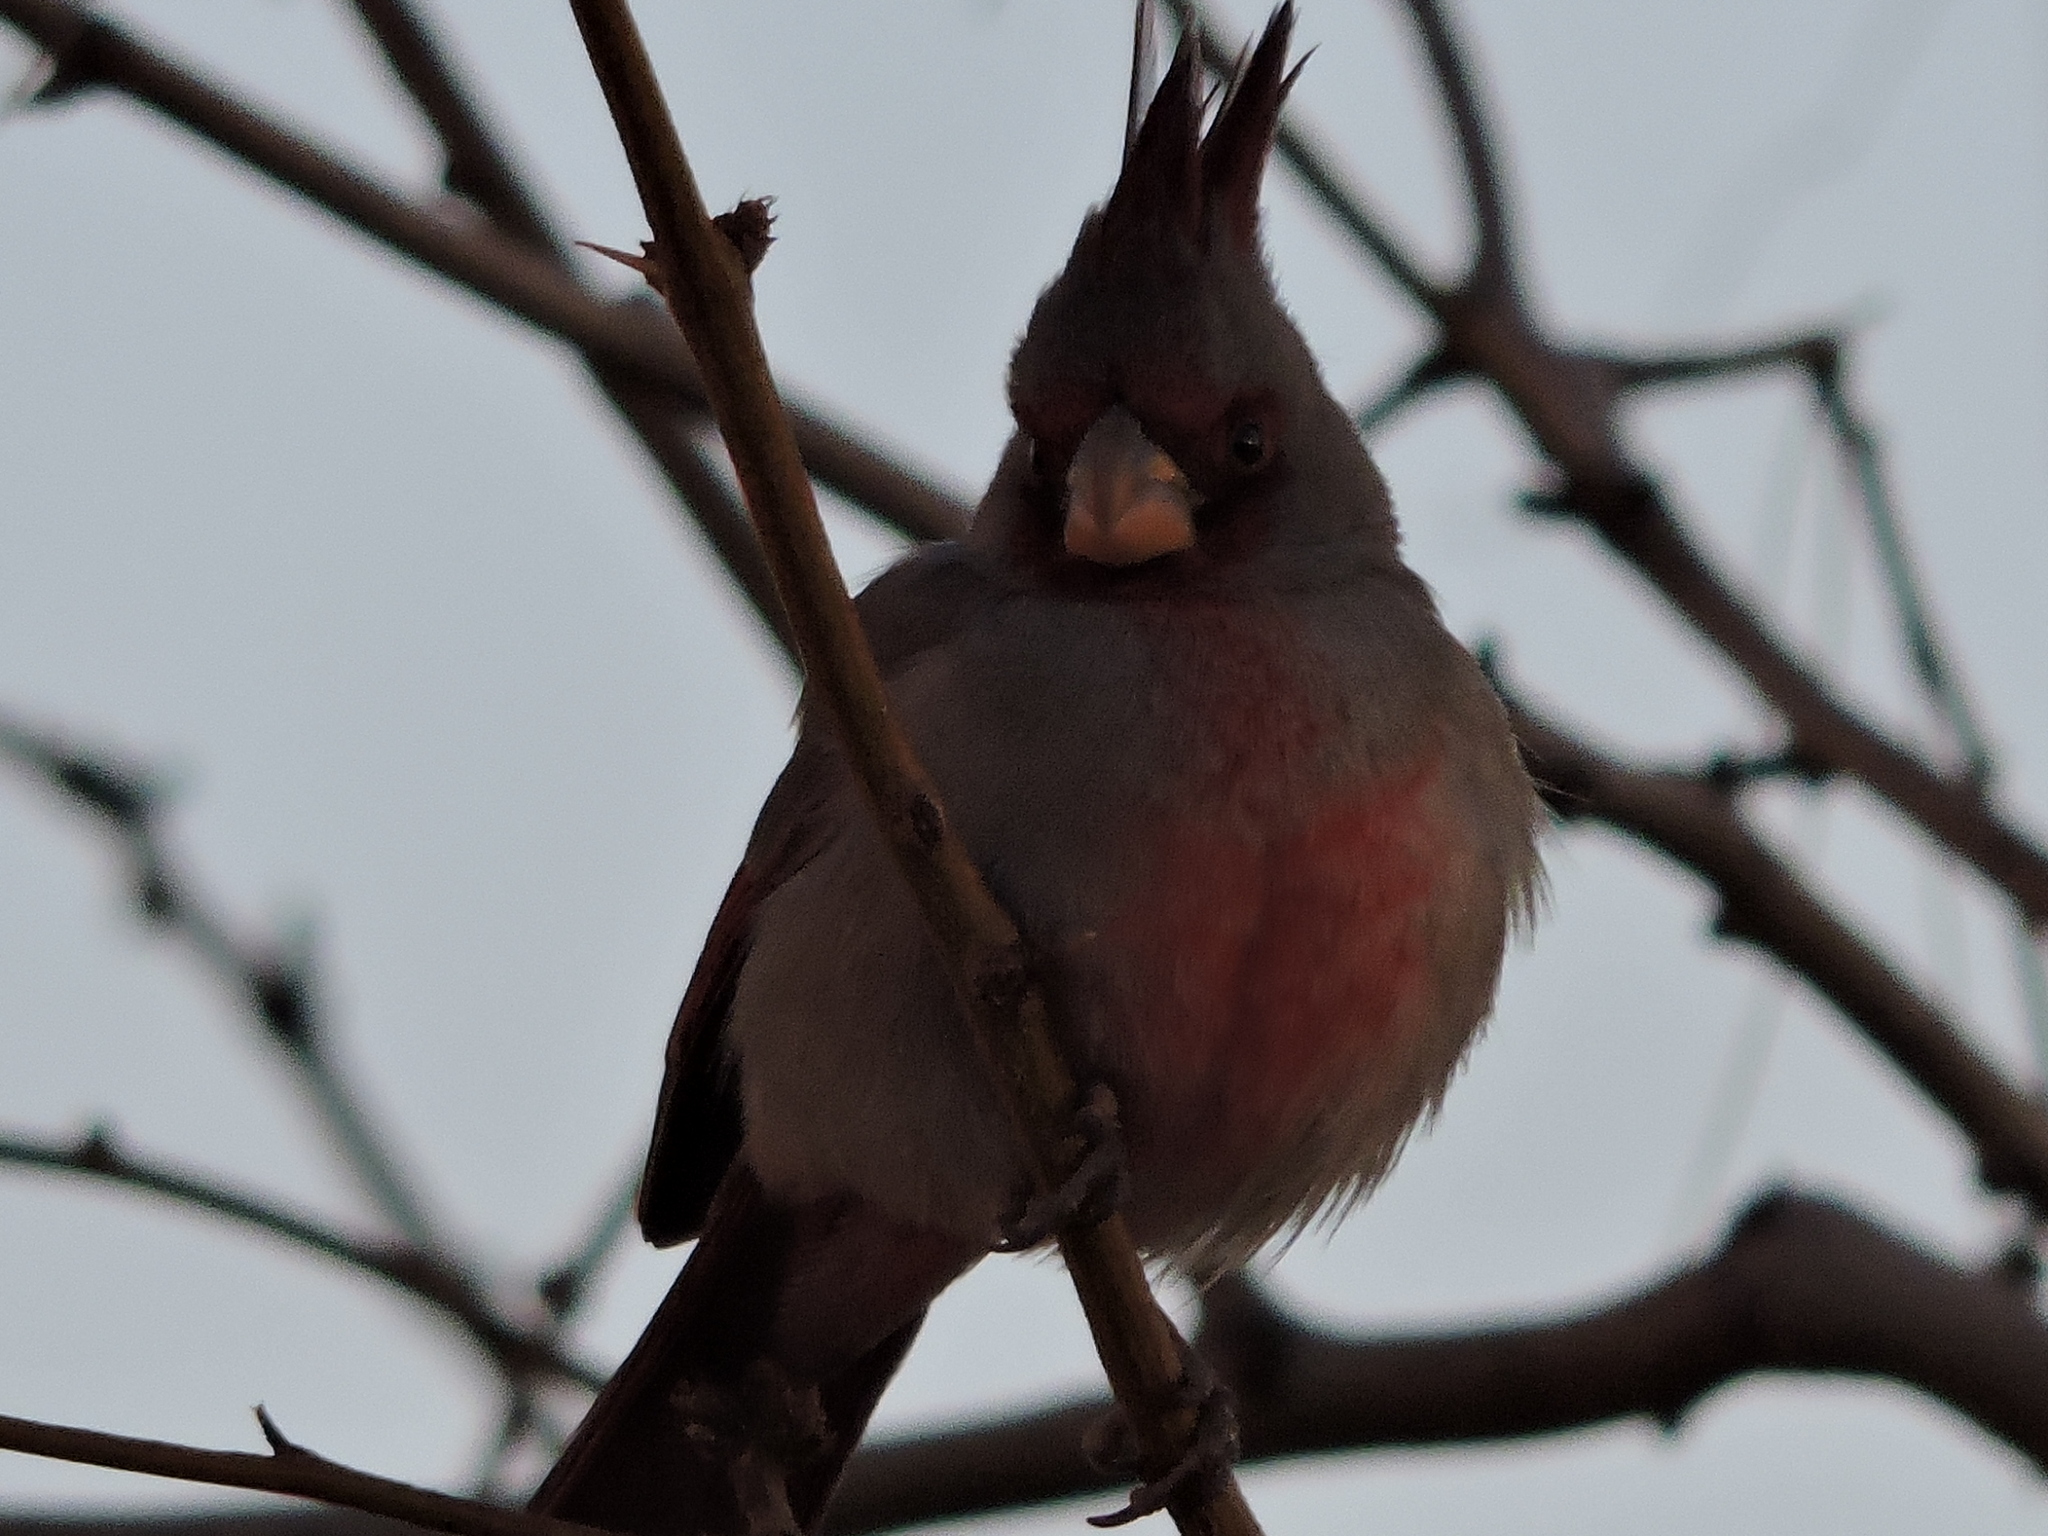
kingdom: Animalia
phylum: Chordata
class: Aves
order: Passeriformes
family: Cardinalidae
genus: Cardinalis
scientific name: Cardinalis sinuatus
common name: Pyrrhuloxia
